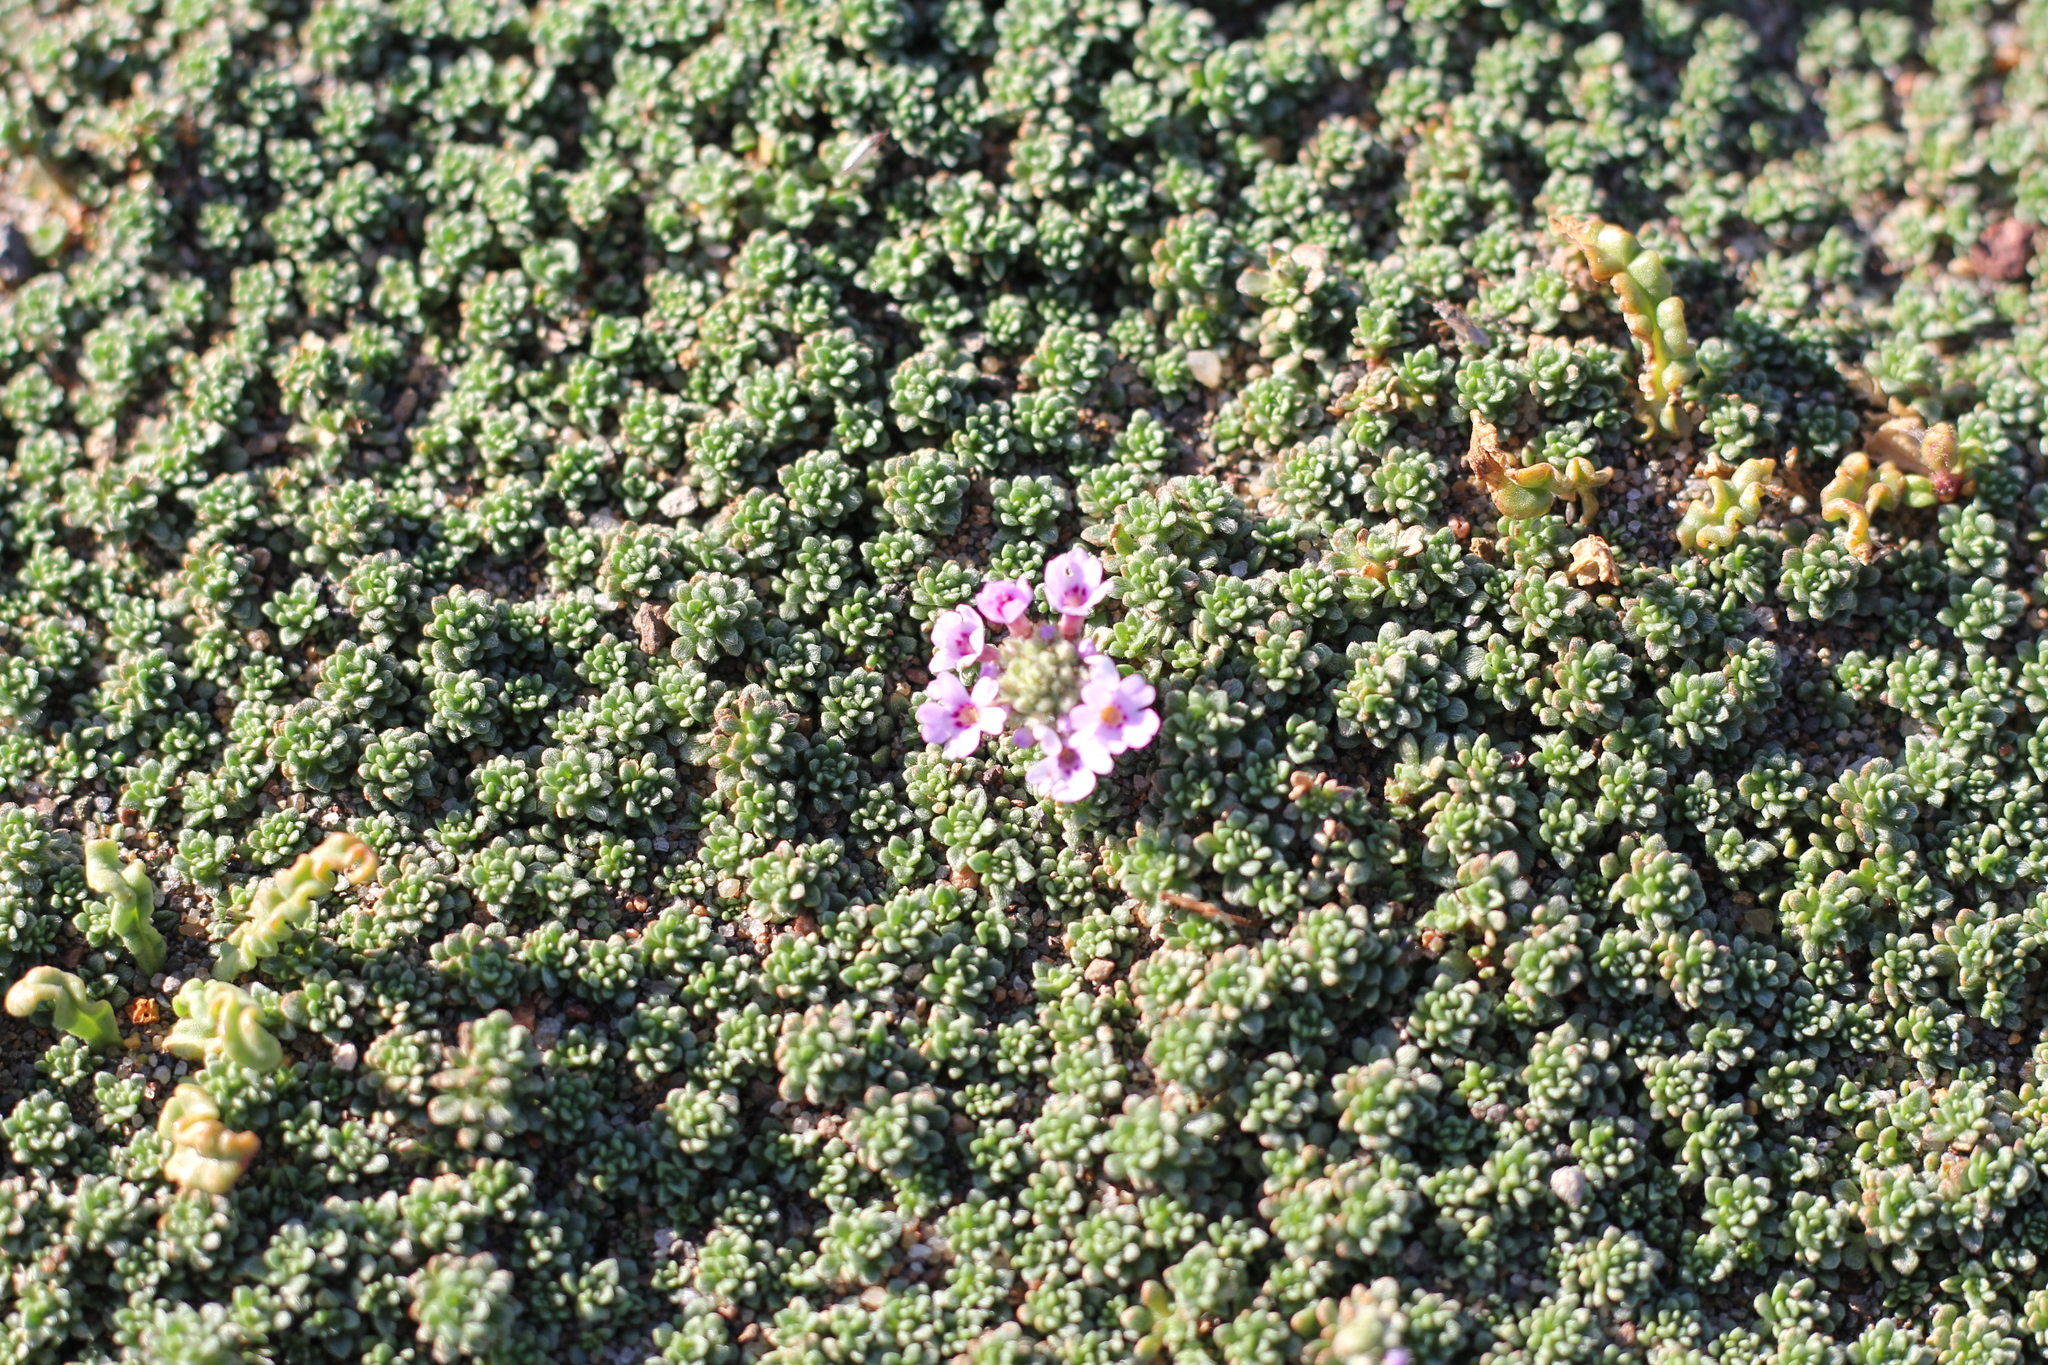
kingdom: Plantae
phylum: Tracheophyta
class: Magnoliopsida
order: Lamiales
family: Verbenaceae
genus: Junellia
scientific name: Junellia micrantha
